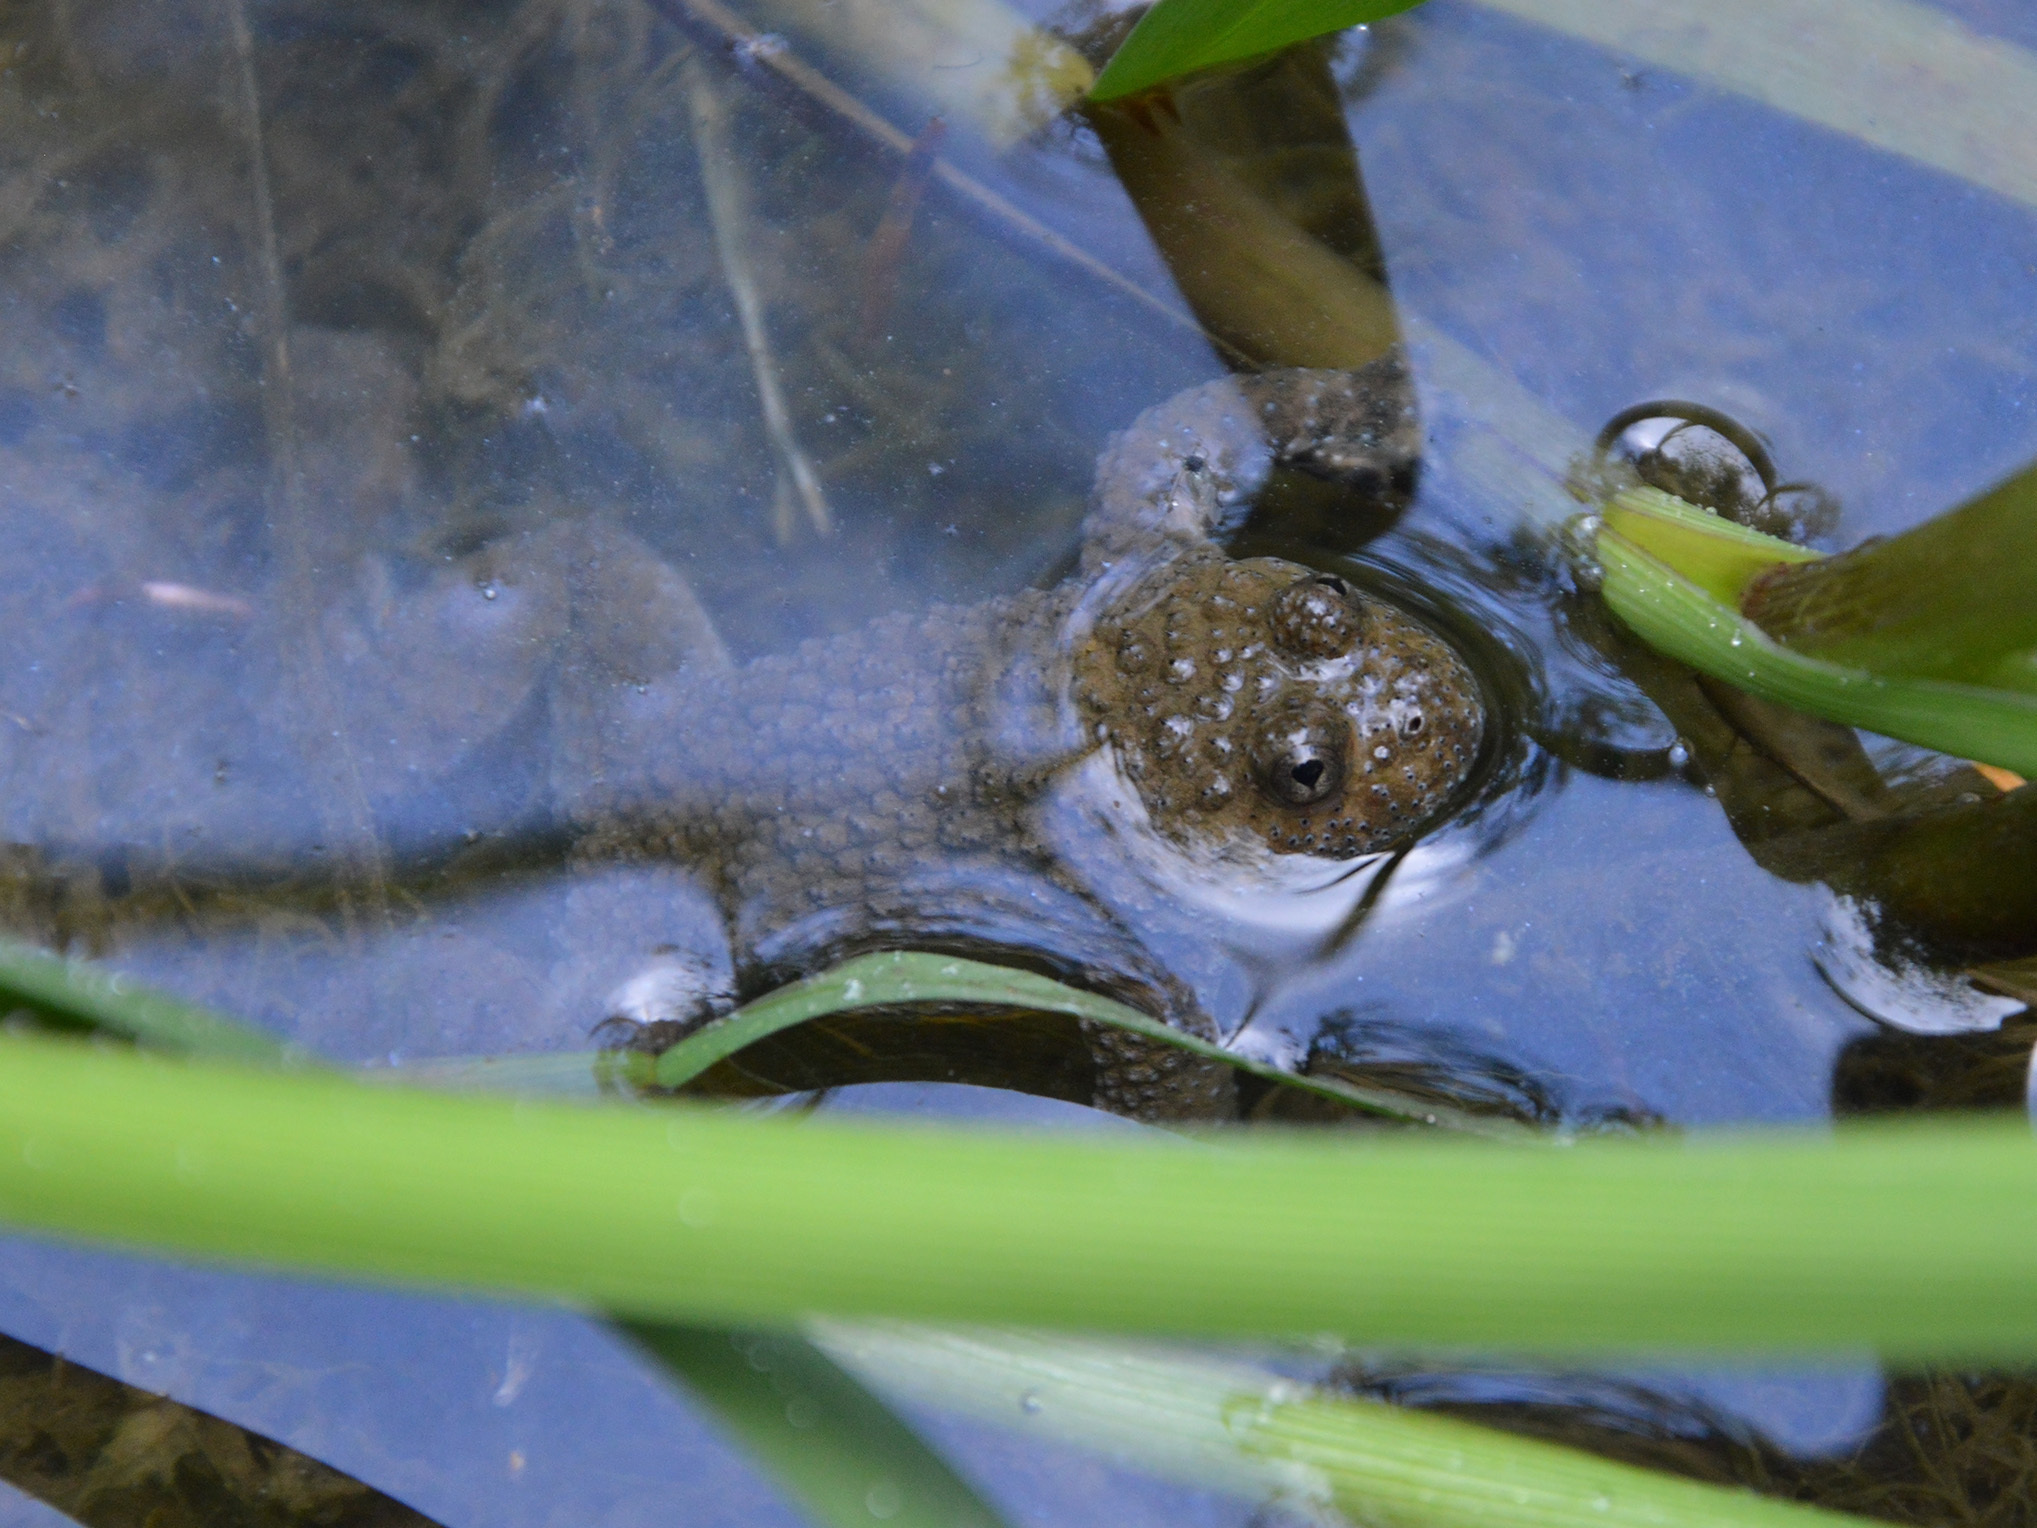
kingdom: Animalia
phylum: Chordata
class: Amphibia
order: Anura
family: Bombinatoridae
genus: Bombina
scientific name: Bombina variegata
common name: Yellow-bellied toad
